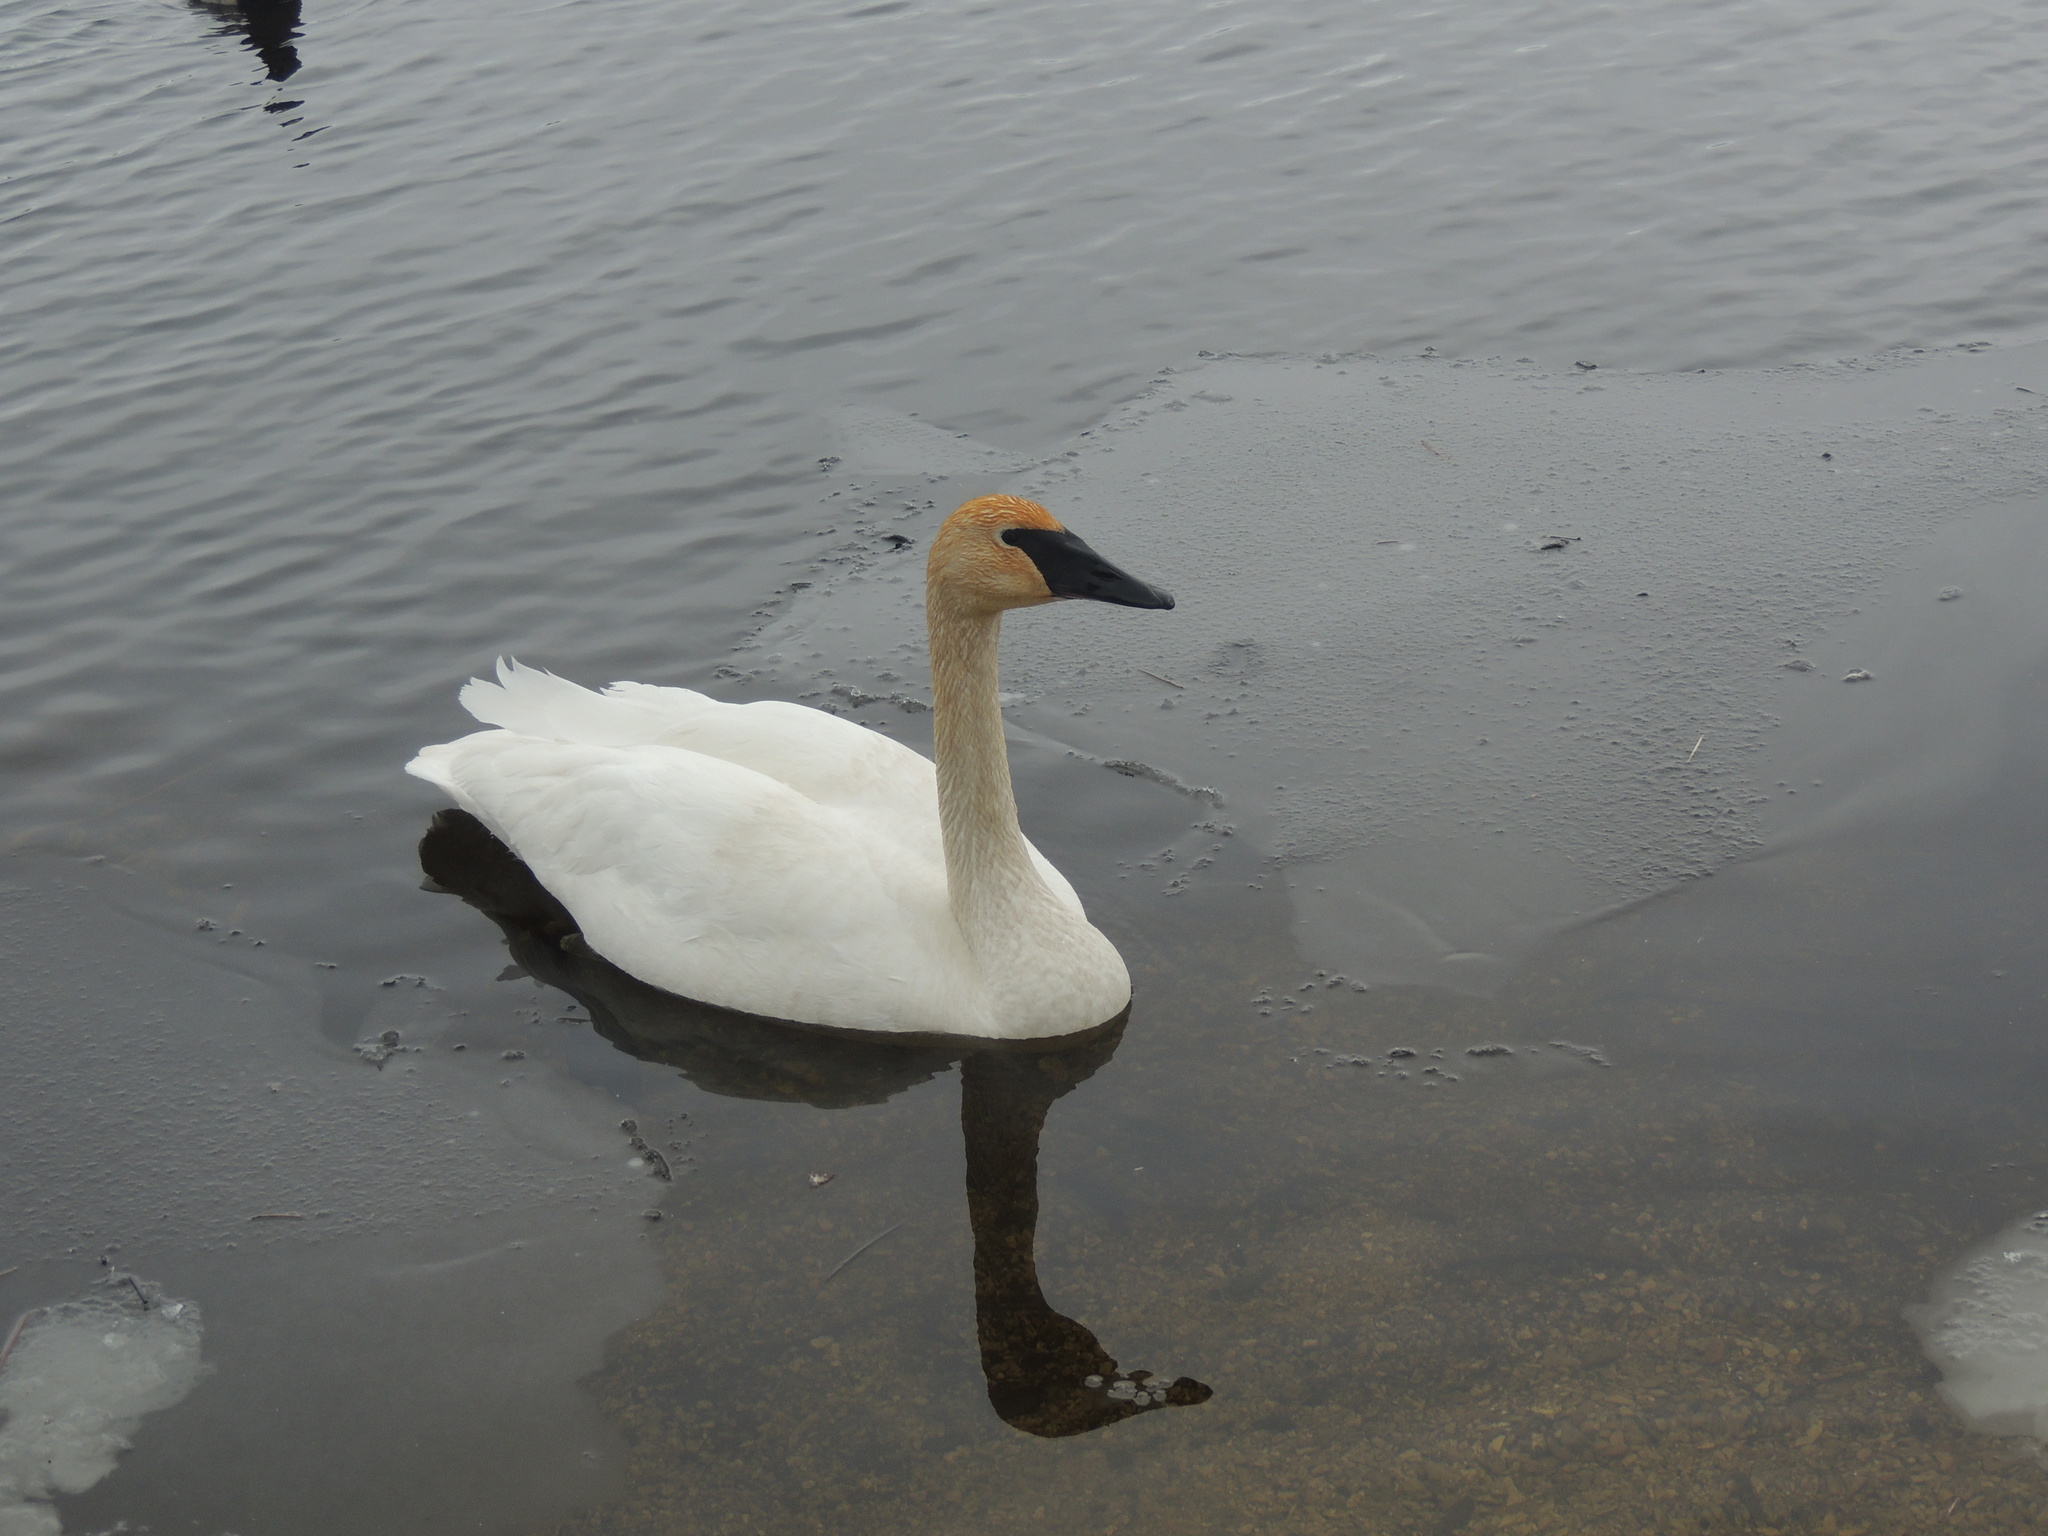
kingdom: Animalia
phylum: Chordata
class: Aves
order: Anseriformes
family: Anatidae
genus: Cygnus
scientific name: Cygnus buccinator
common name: Trumpeter swan
